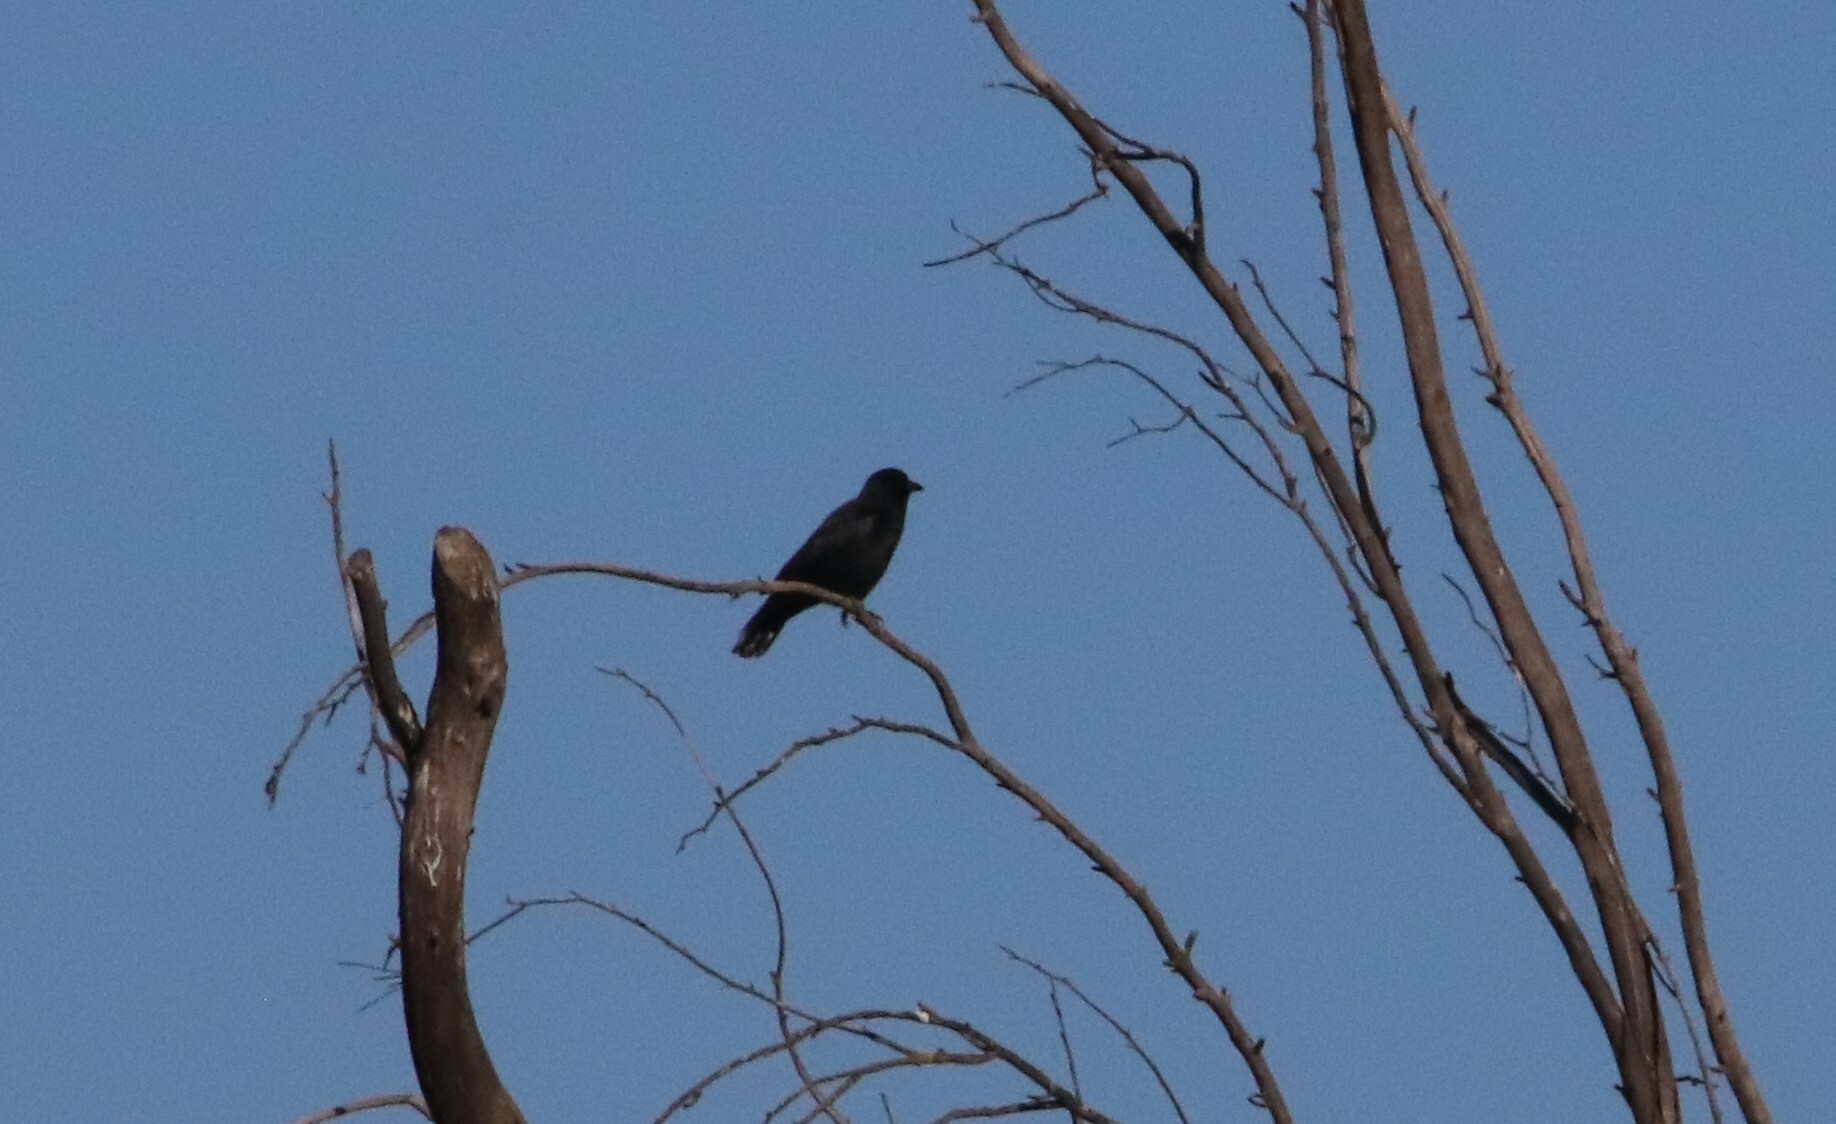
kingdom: Animalia
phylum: Chordata
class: Aves
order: Passeriformes
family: Corvidae
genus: Corvus
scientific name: Corvus brachyrhynchos
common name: American crow
